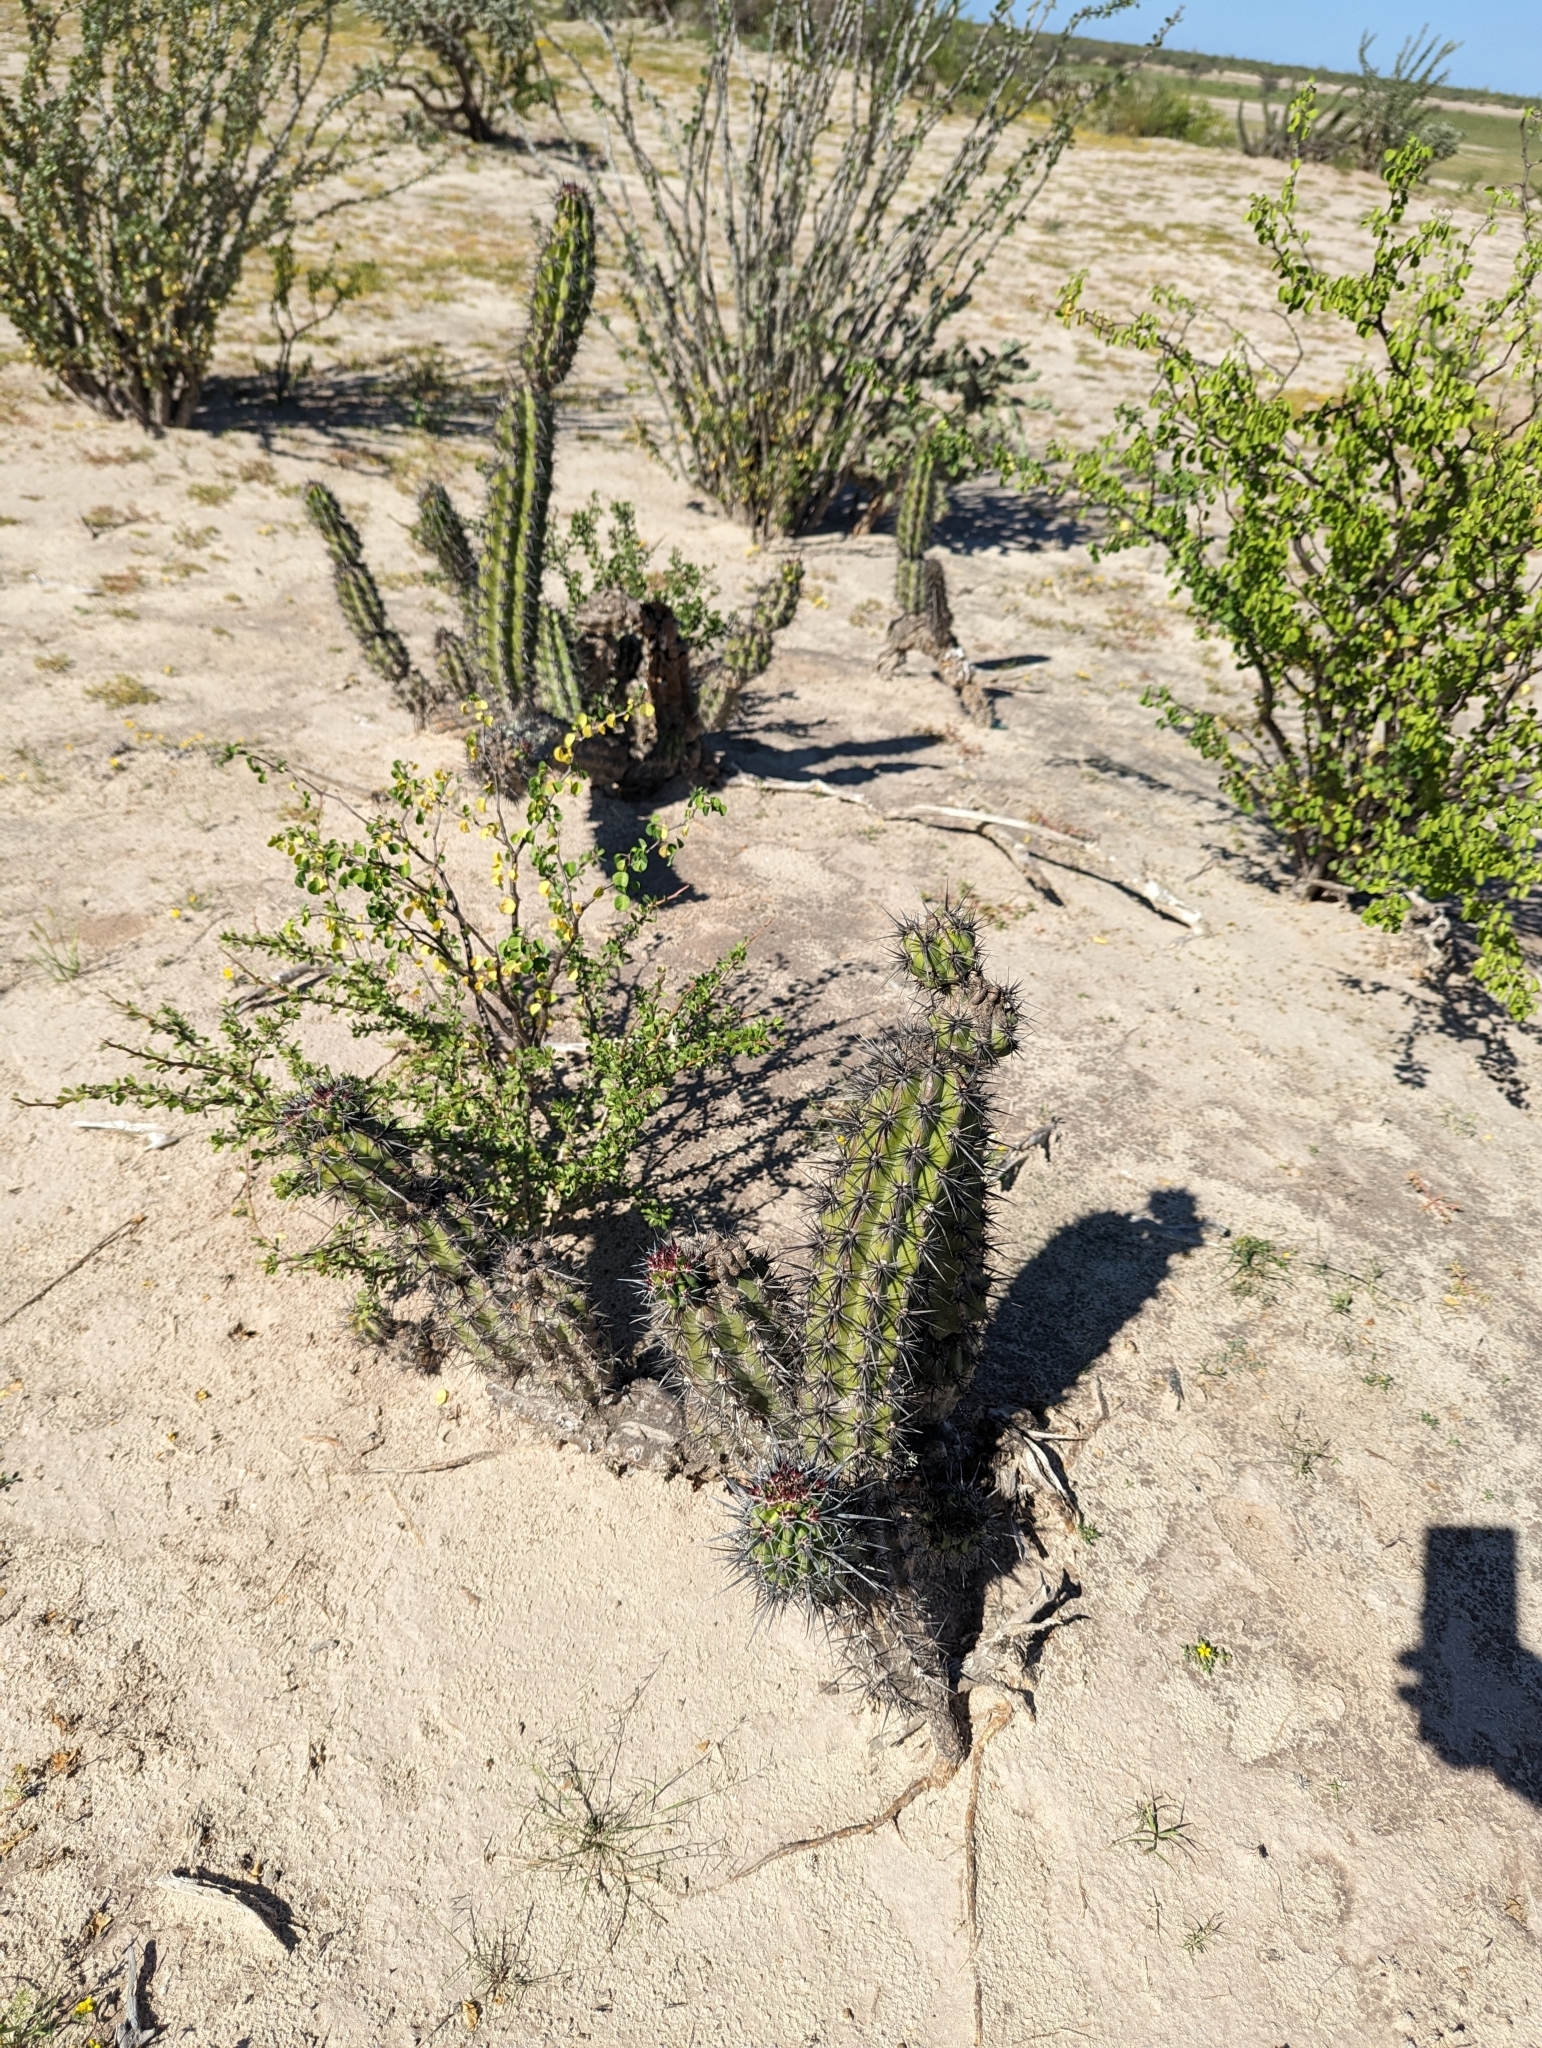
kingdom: Plantae
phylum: Tracheophyta
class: Magnoliopsida
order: Caryophyllales
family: Cactaceae
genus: Stenocereus
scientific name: Stenocereus gummosus
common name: Dagger cactus
